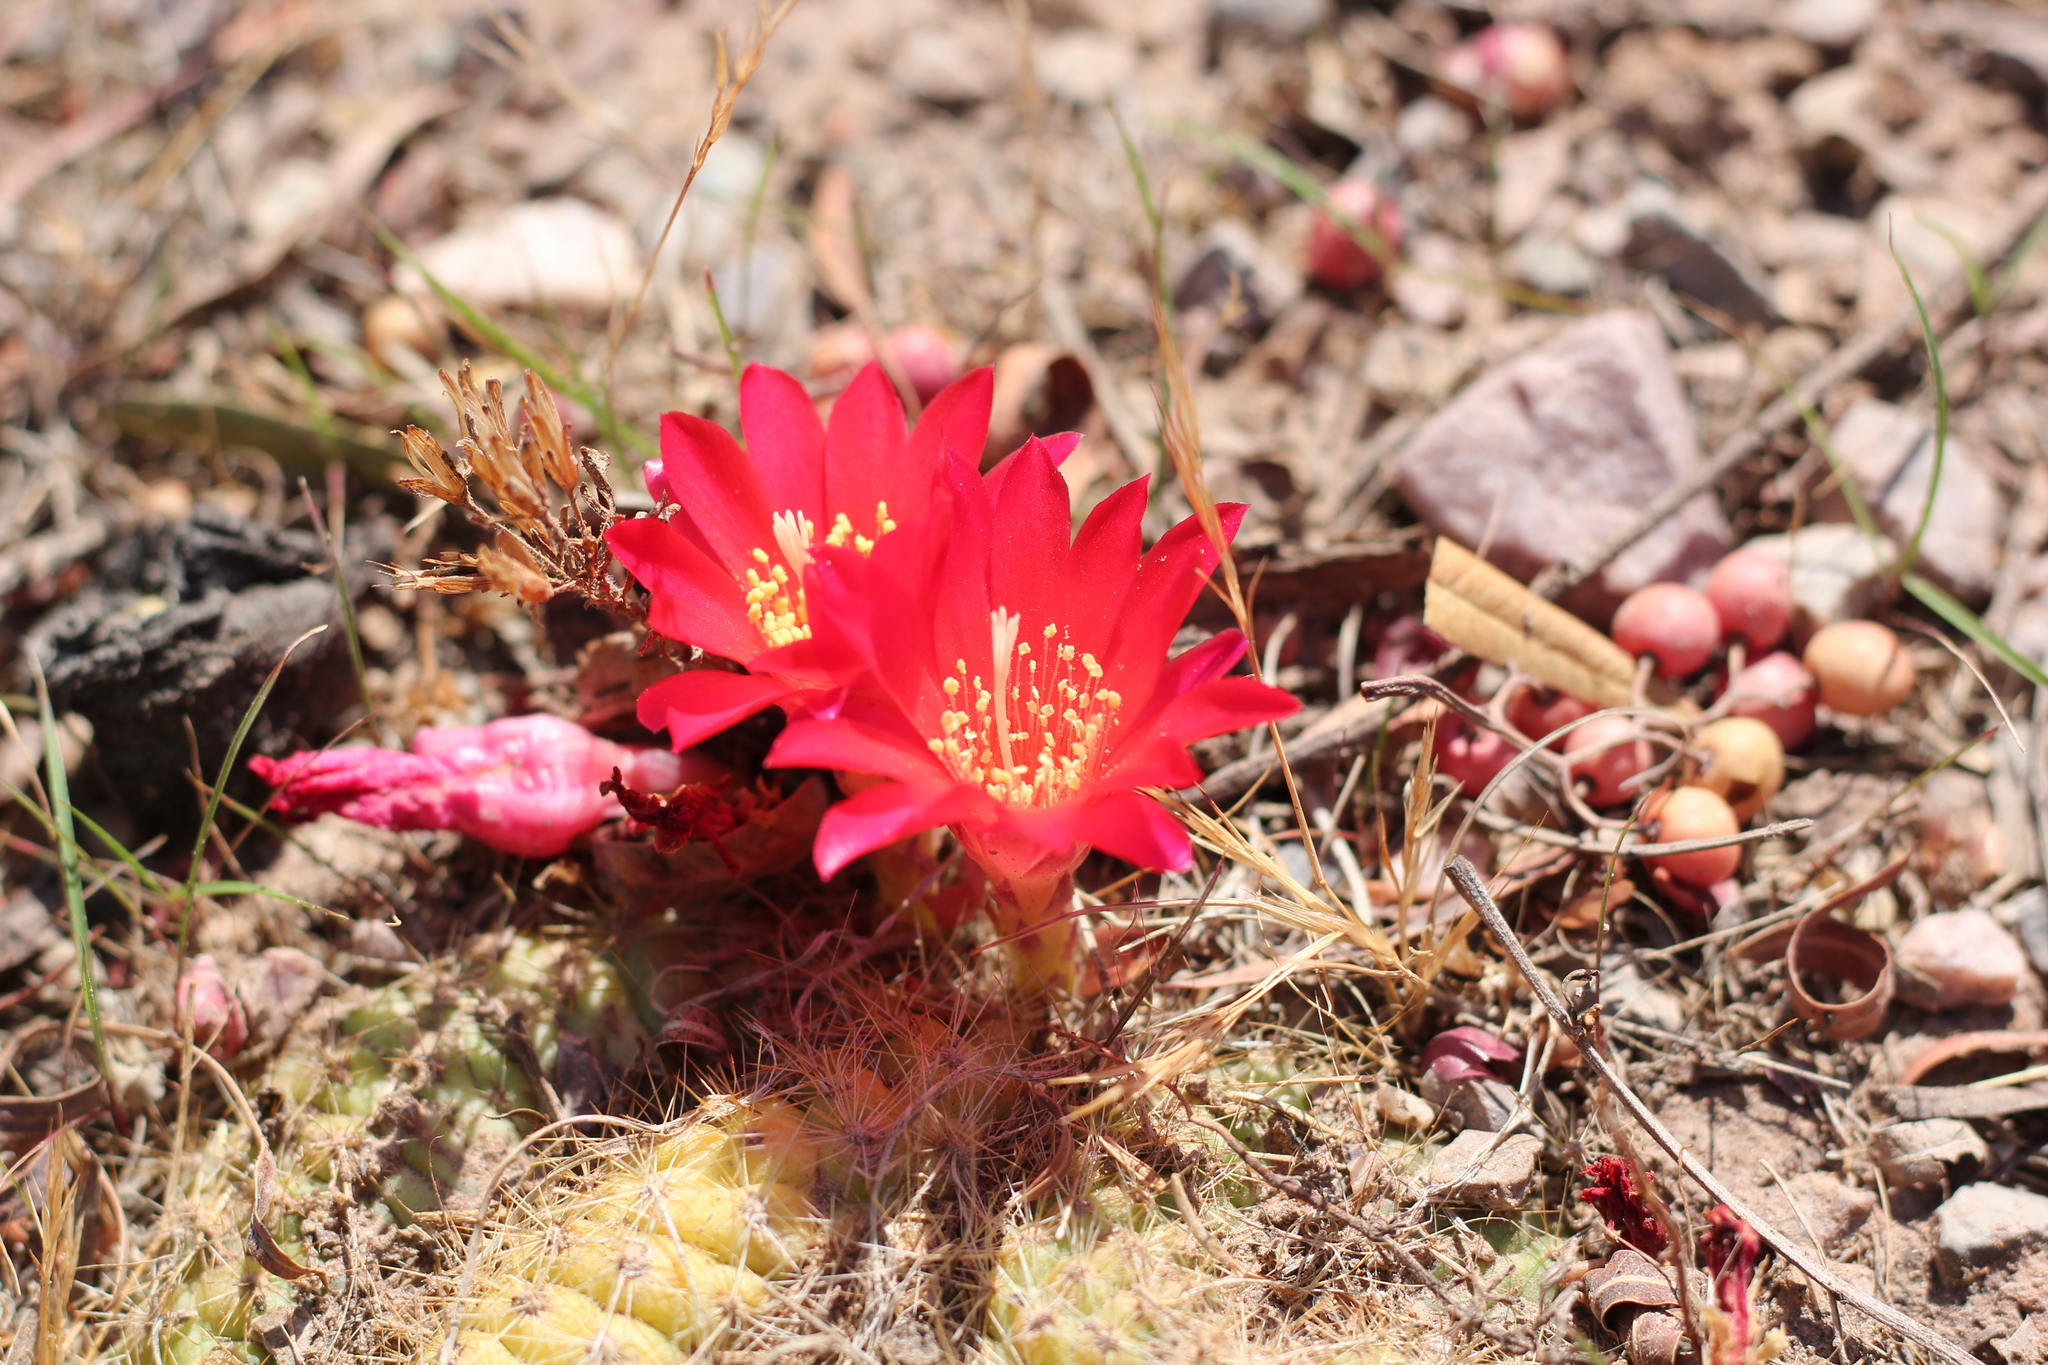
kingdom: Plantae
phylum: Tracheophyta
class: Magnoliopsida
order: Caryophyllales
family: Cactaceae
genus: Rebutia
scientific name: Rebutia minuscula
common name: Violet crown cactus
